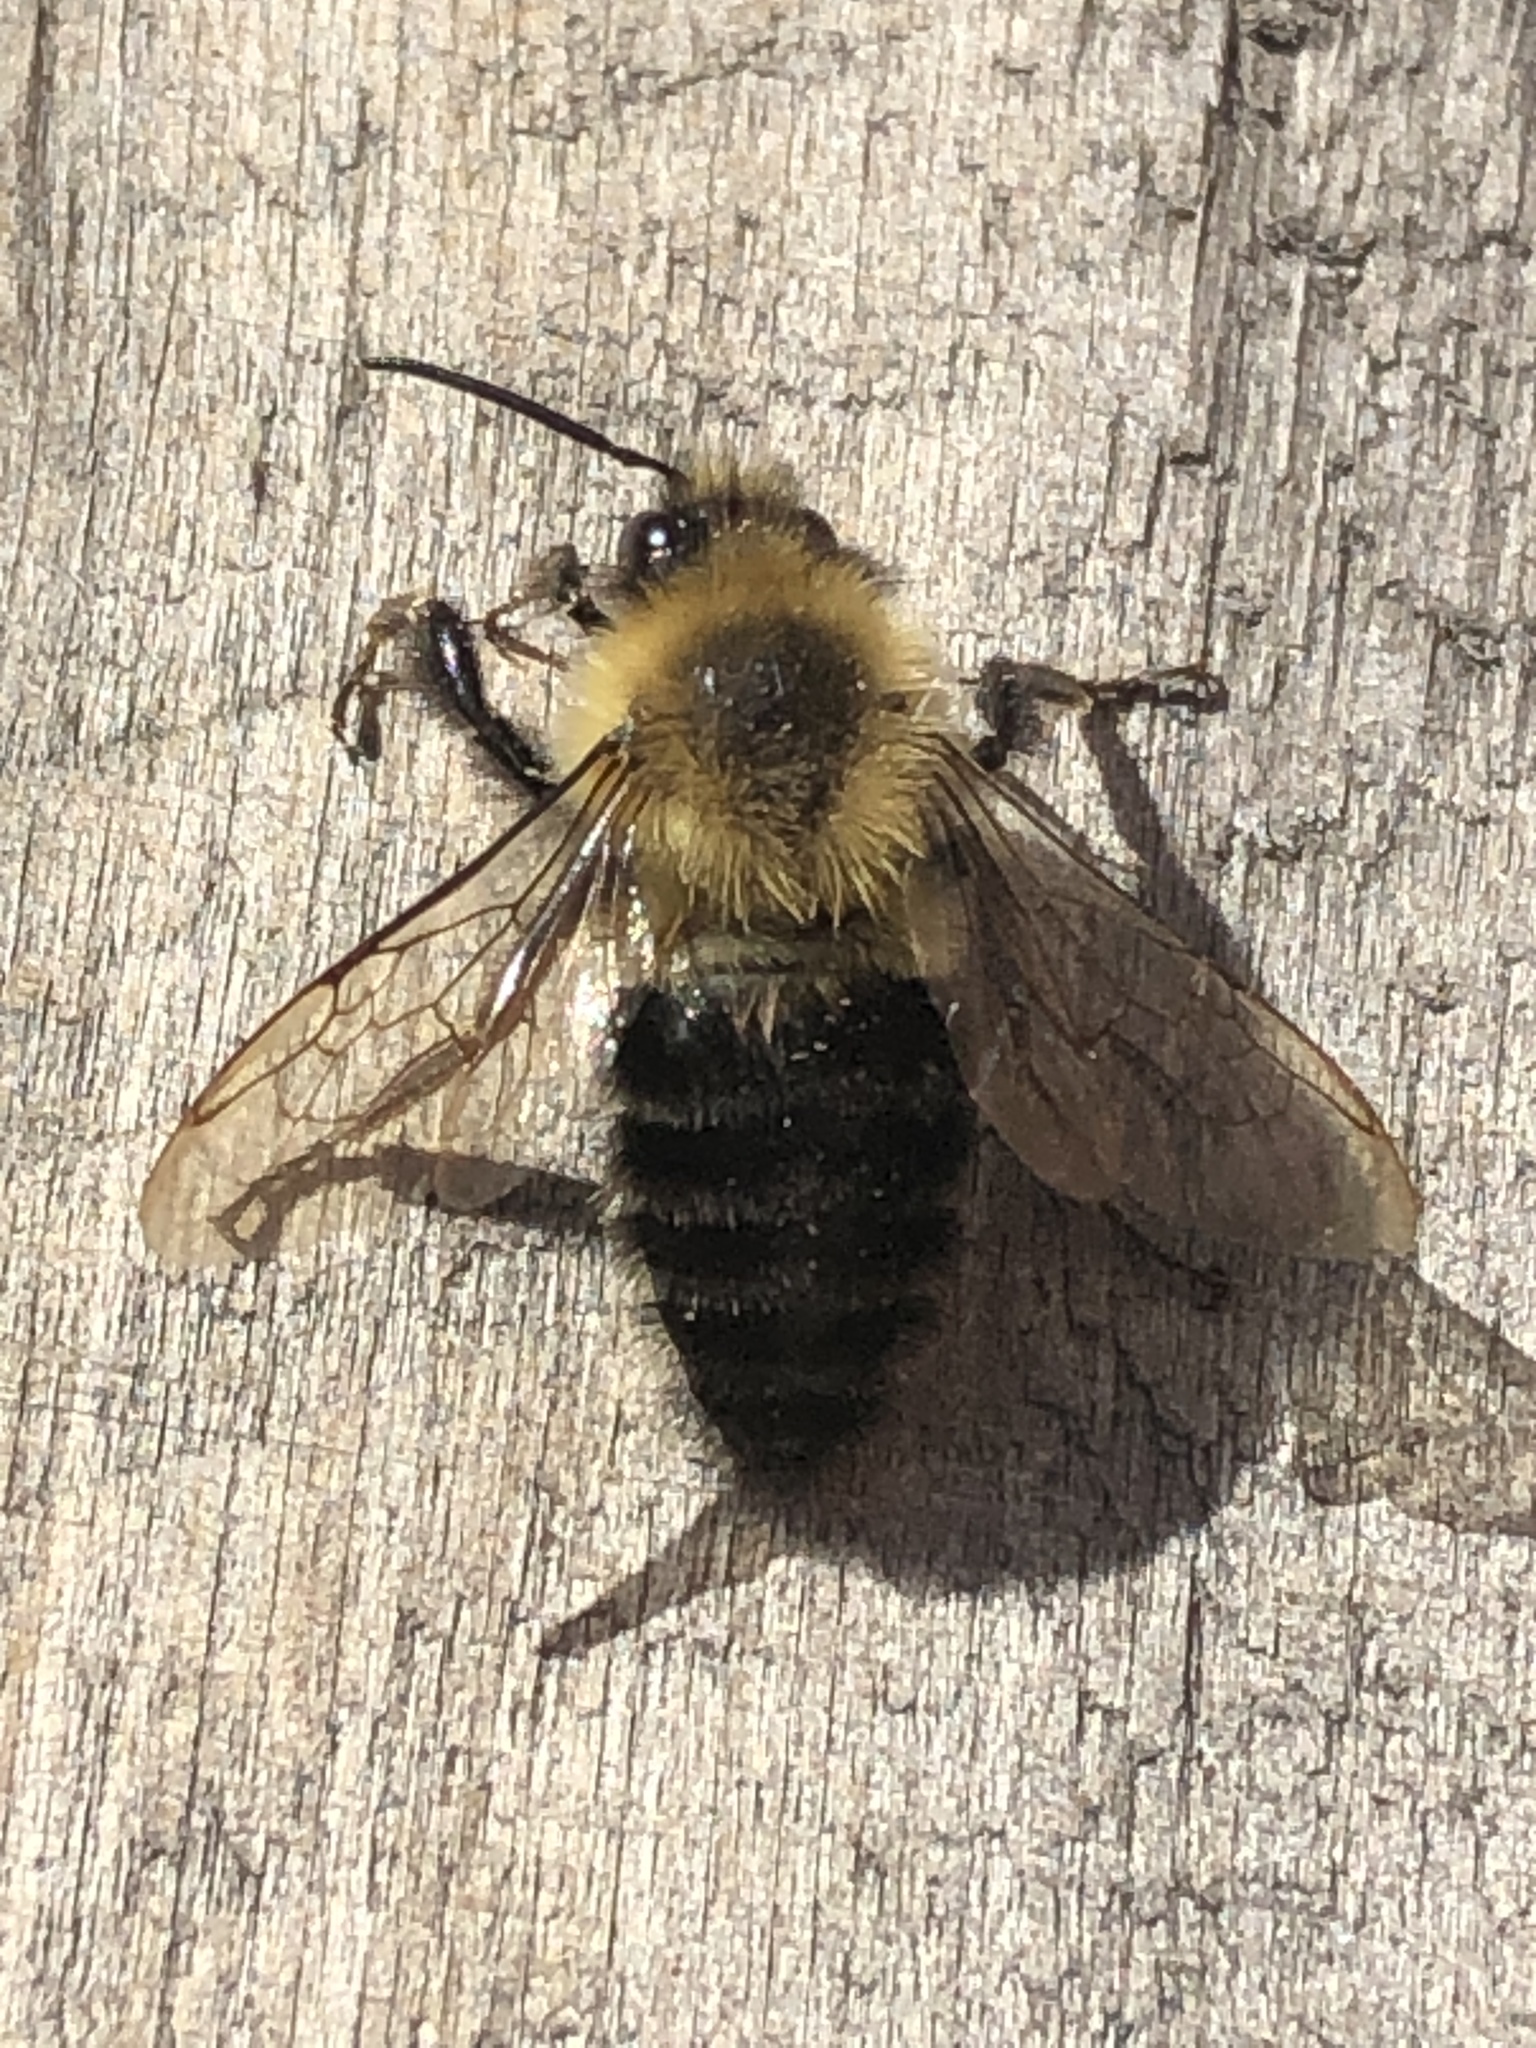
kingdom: Animalia
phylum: Arthropoda
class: Insecta
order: Hymenoptera
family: Apidae
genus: Bombus
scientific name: Bombus impatiens
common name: Common eastern bumble bee
